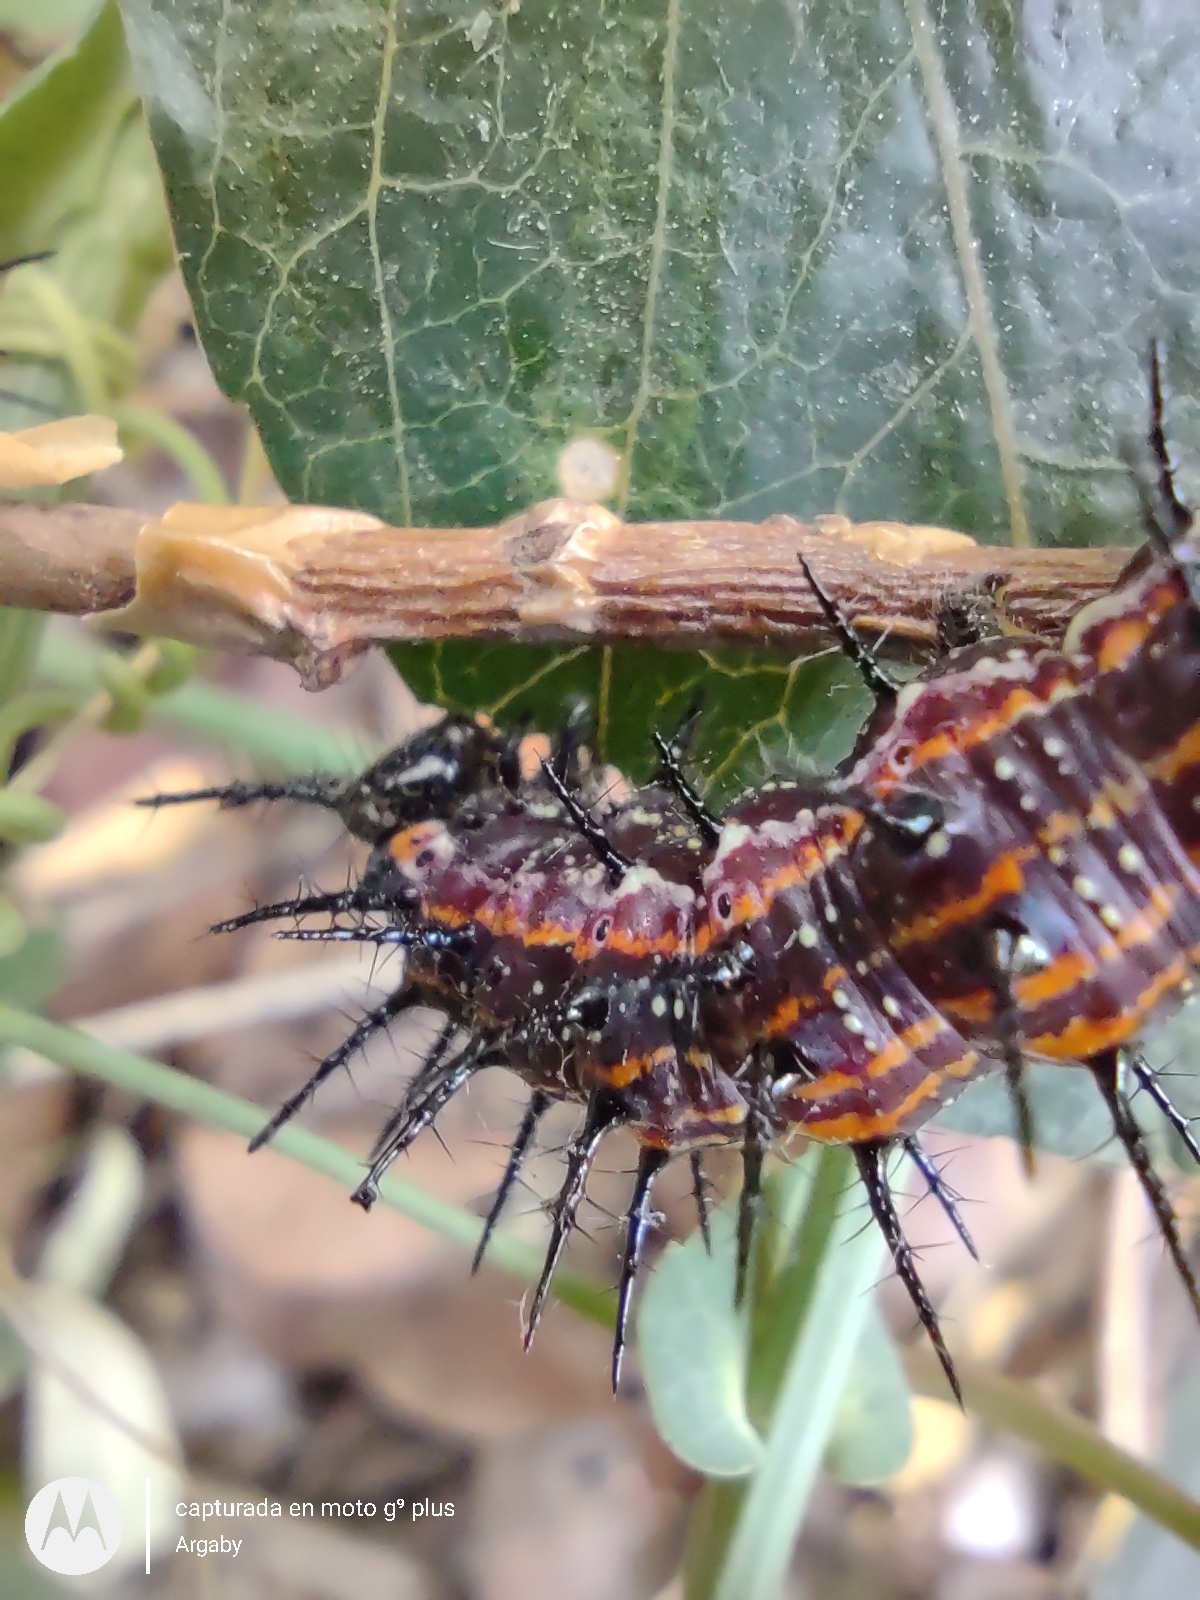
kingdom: Animalia
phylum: Arthropoda
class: Insecta
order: Lepidoptera
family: Nymphalidae
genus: Dione
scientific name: Dione vanillae
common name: Gulf fritillary
